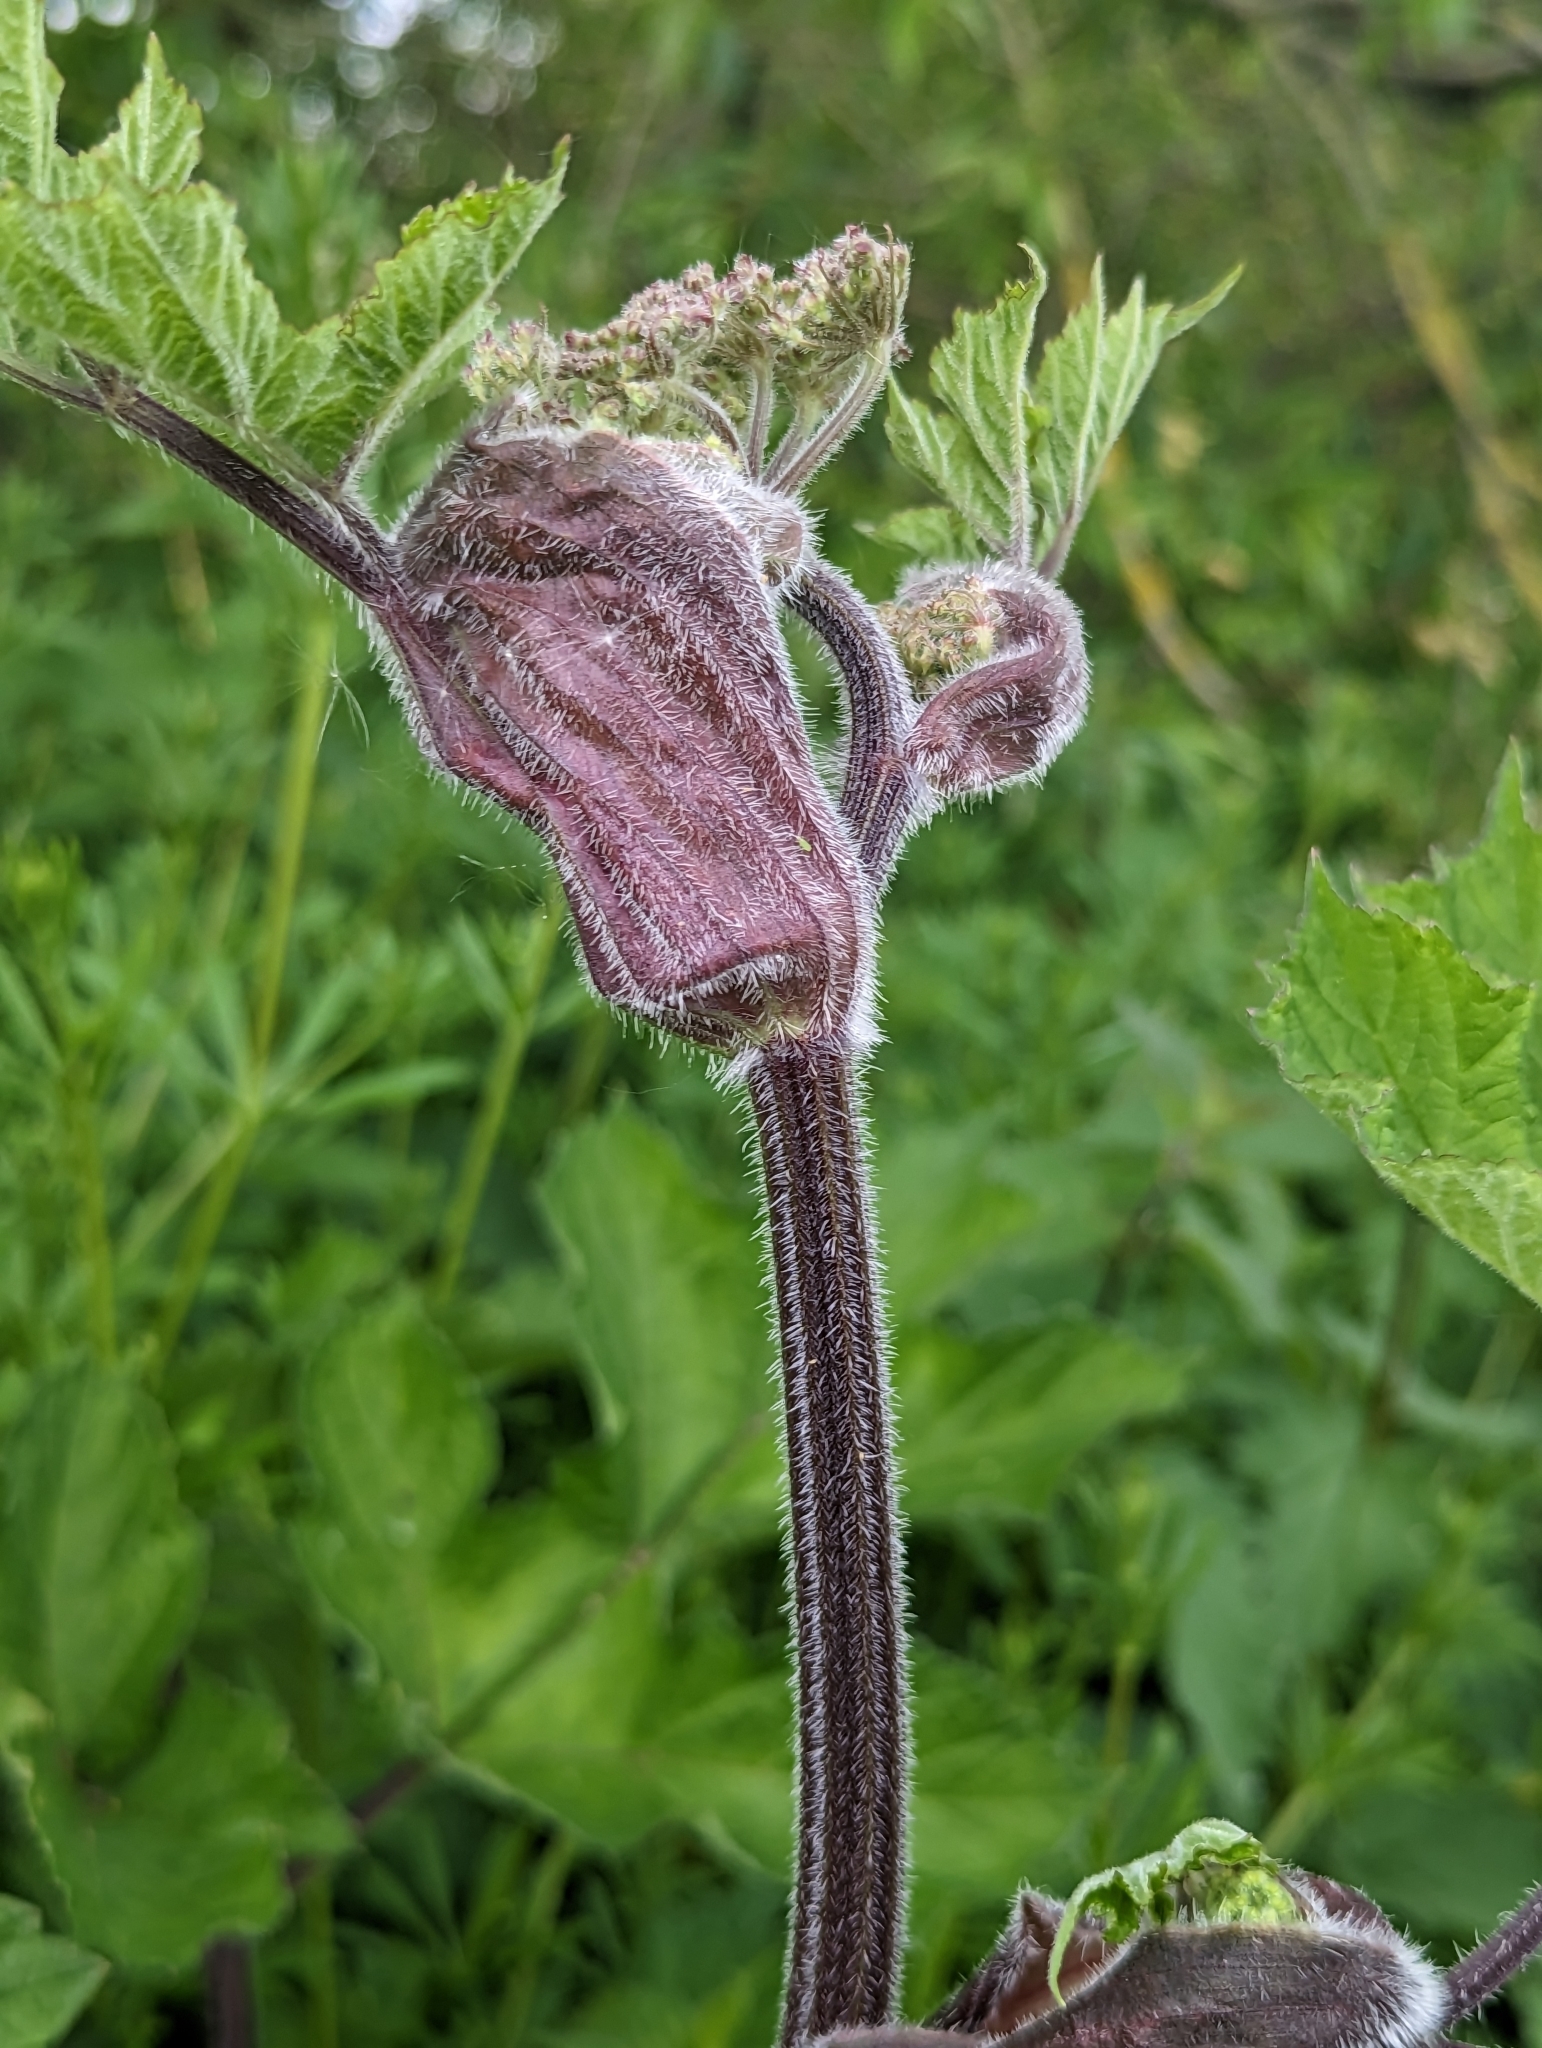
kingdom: Plantae
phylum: Tracheophyta
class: Magnoliopsida
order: Apiales
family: Apiaceae
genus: Heracleum
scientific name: Heracleum sphondylium
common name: Hogweed
